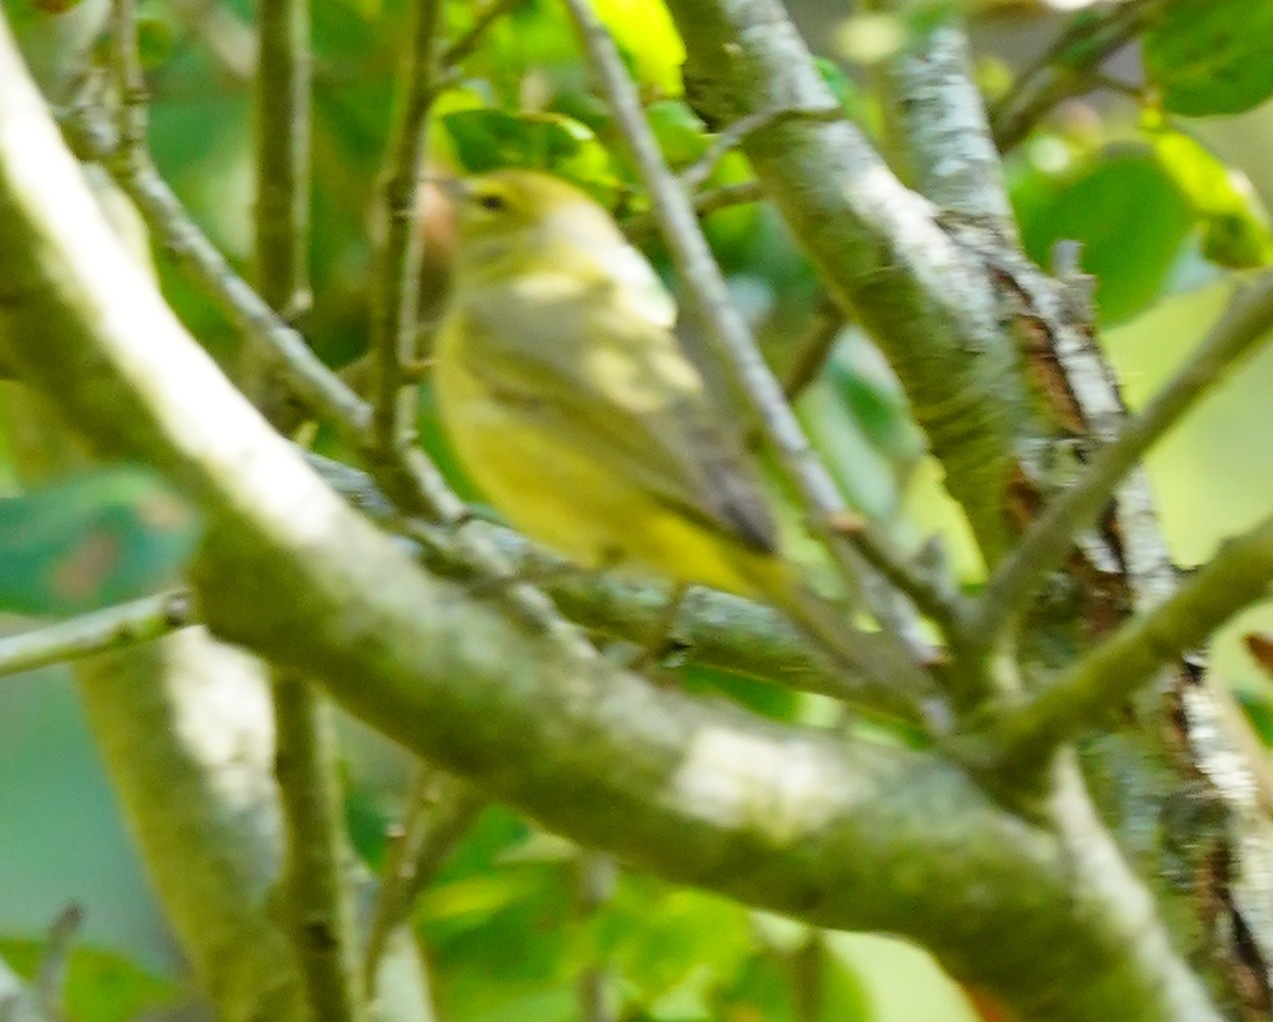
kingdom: Animalia
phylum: Chordata
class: Aves
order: Passeriformes
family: Parulidae
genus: Leiothlypis
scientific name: Leiothlypis celata
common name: Orange-crowned warbler
